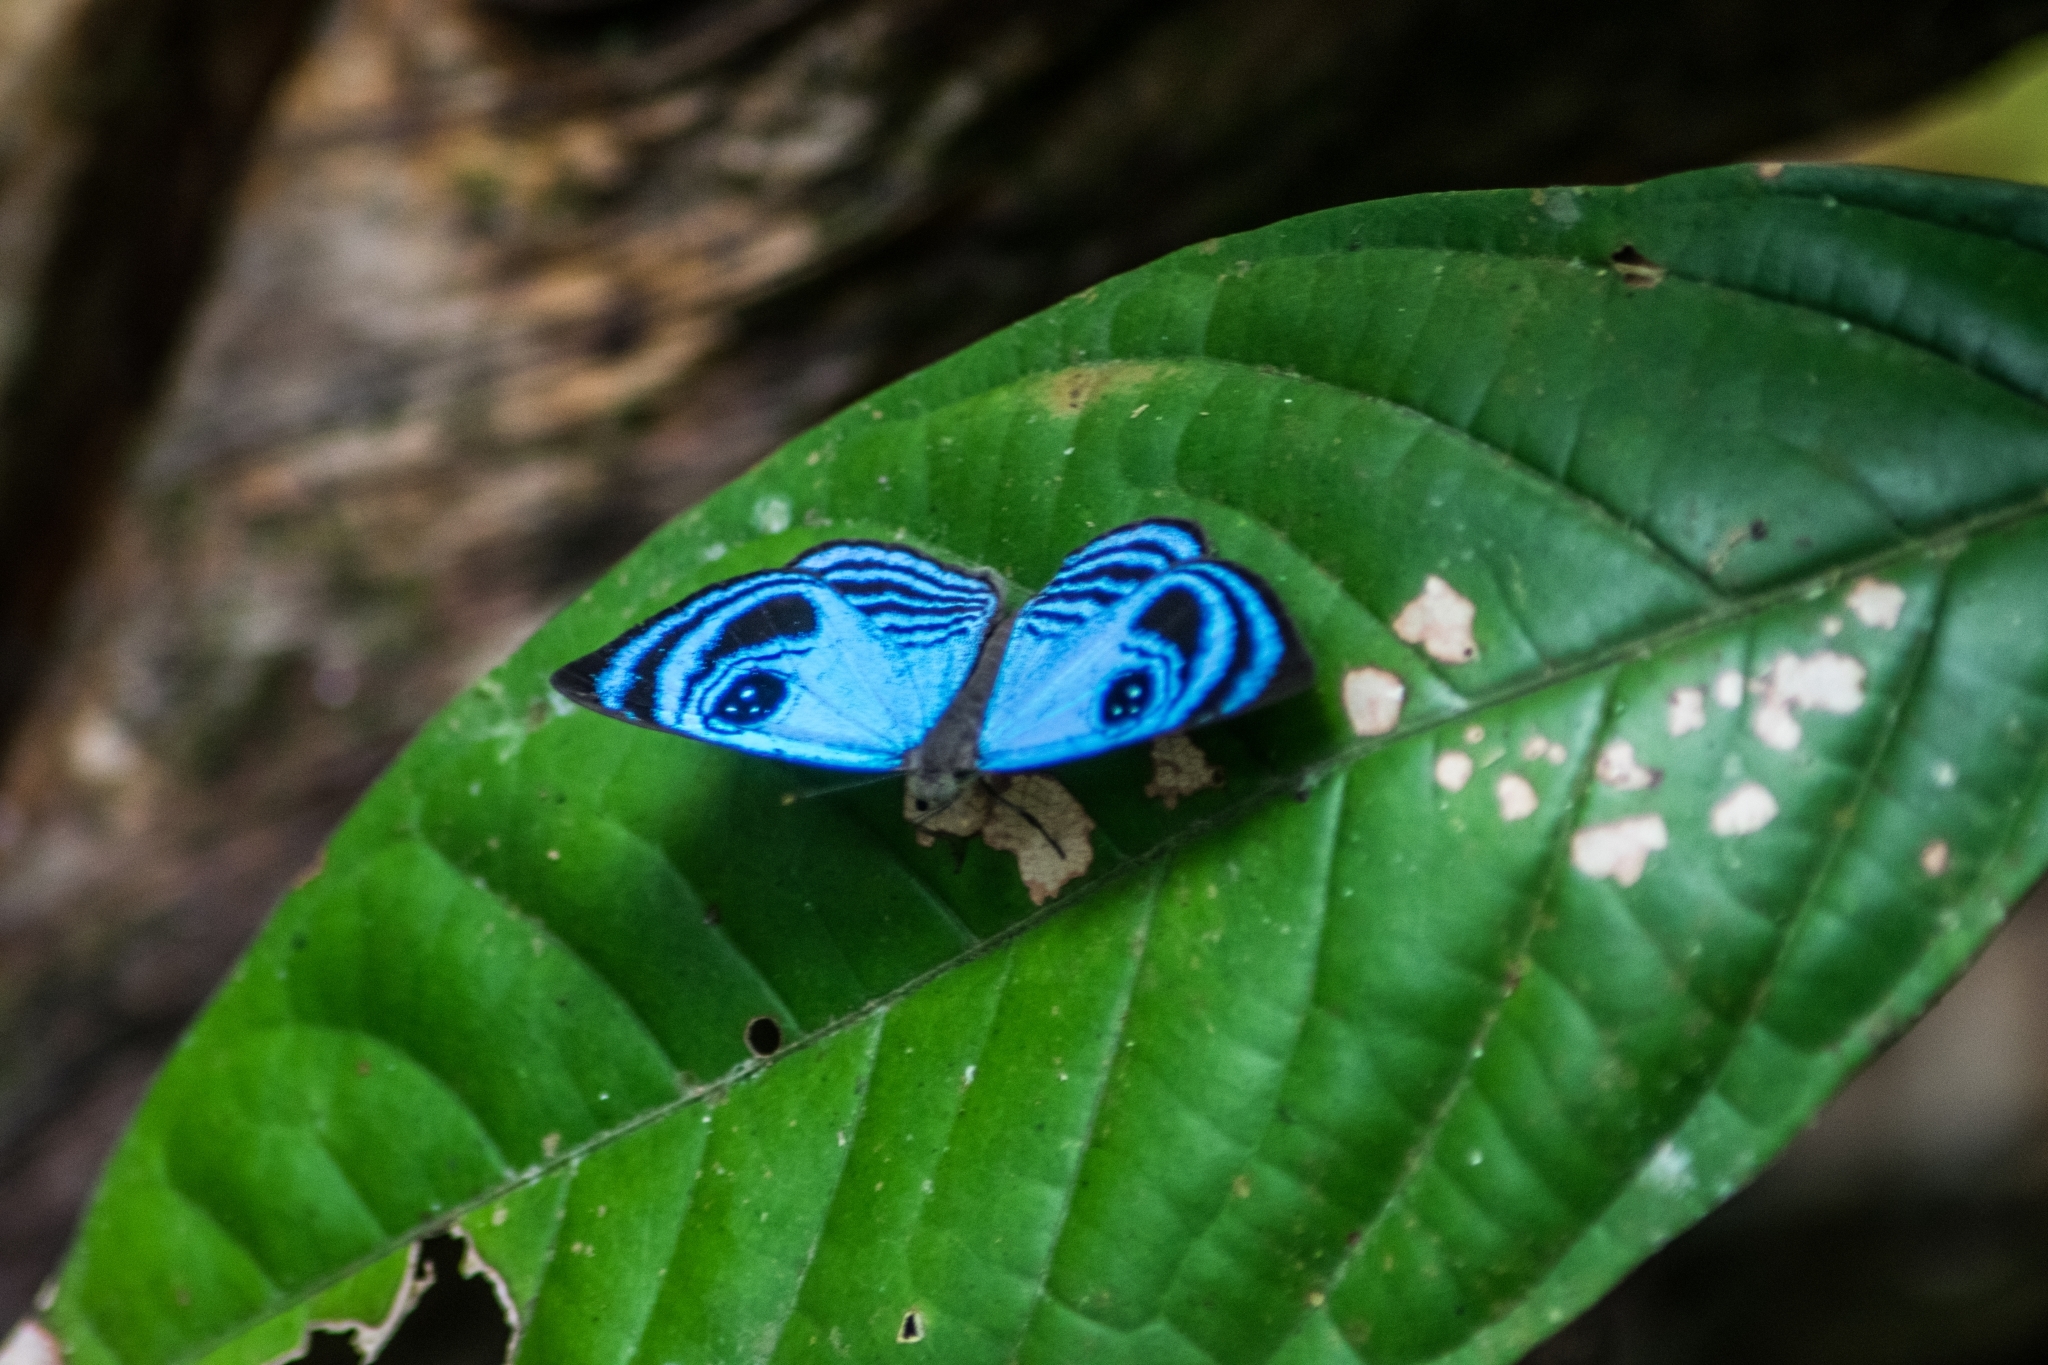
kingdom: Animalia
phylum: Arthropoda
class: Insecta
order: Lepidoptera
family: Riodinidae
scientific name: Riodinidae
